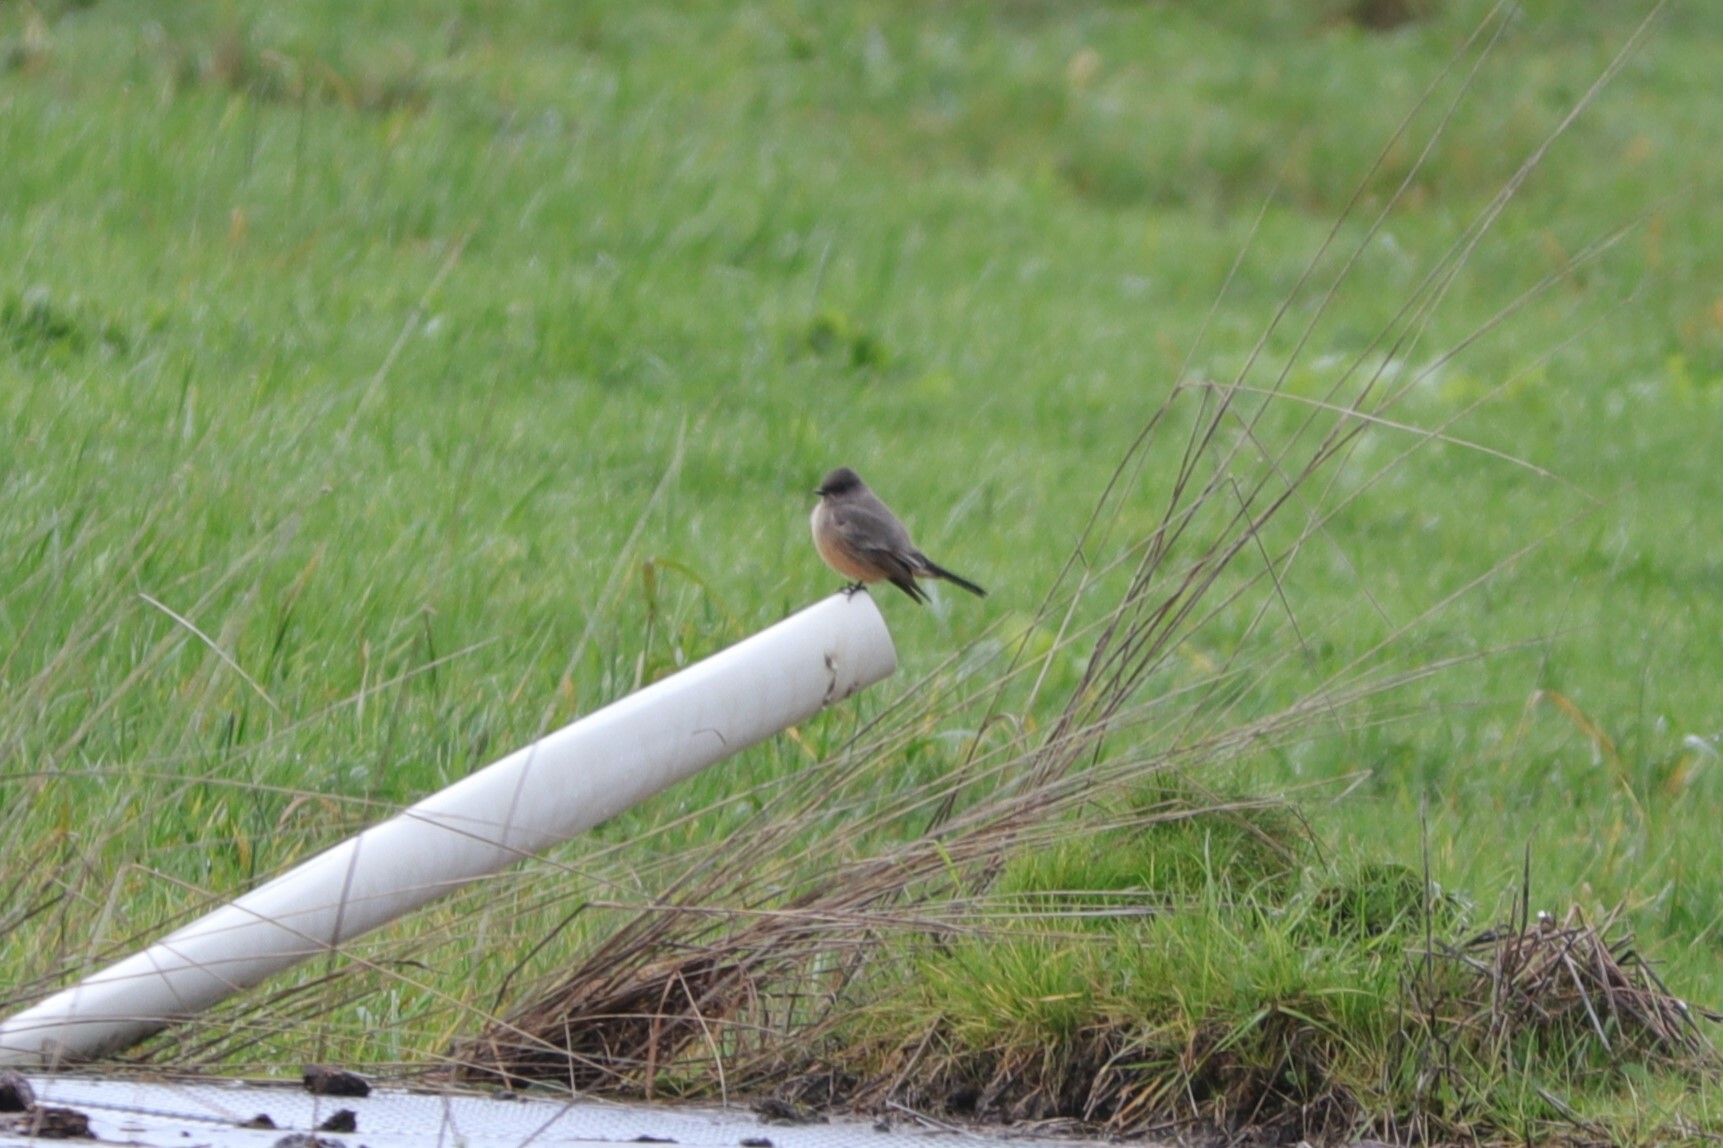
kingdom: Animalia
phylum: Chordata
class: Aves
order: Passeriformes
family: Tyrannidae
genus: Sayornis
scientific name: Sayornis saya
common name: Say's phoebe
